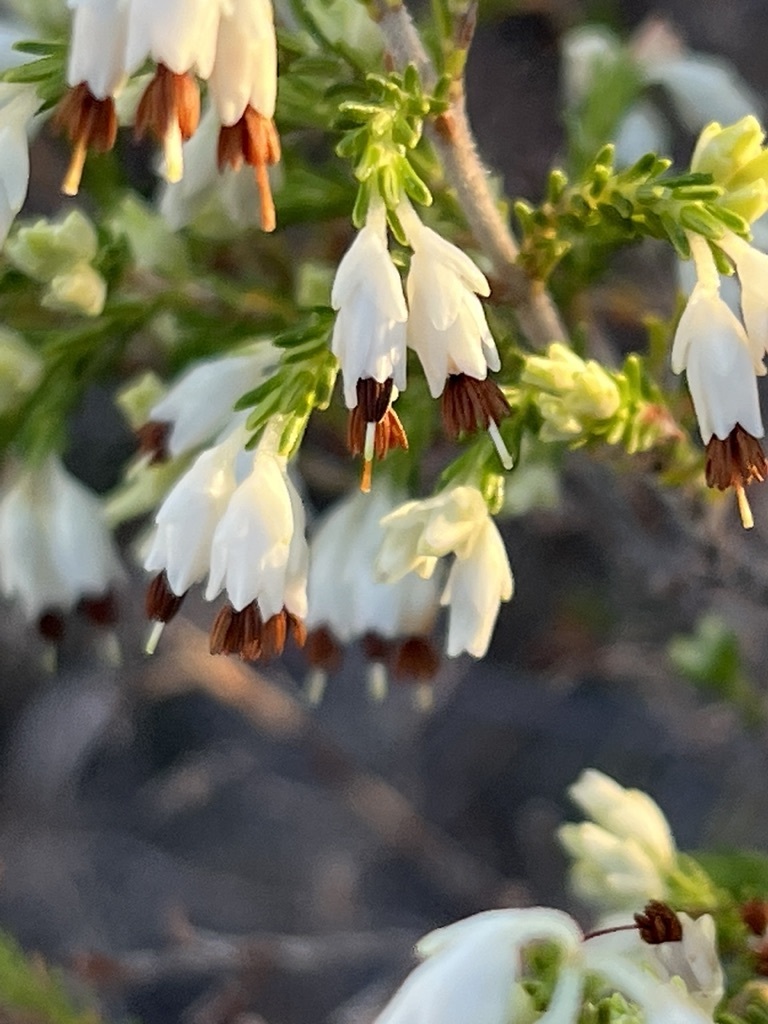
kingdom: Plantae
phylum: Tracheophyta
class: Magnoliopsida
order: Ericales
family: Ericaceae
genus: Erica
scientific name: Erica imbricata
